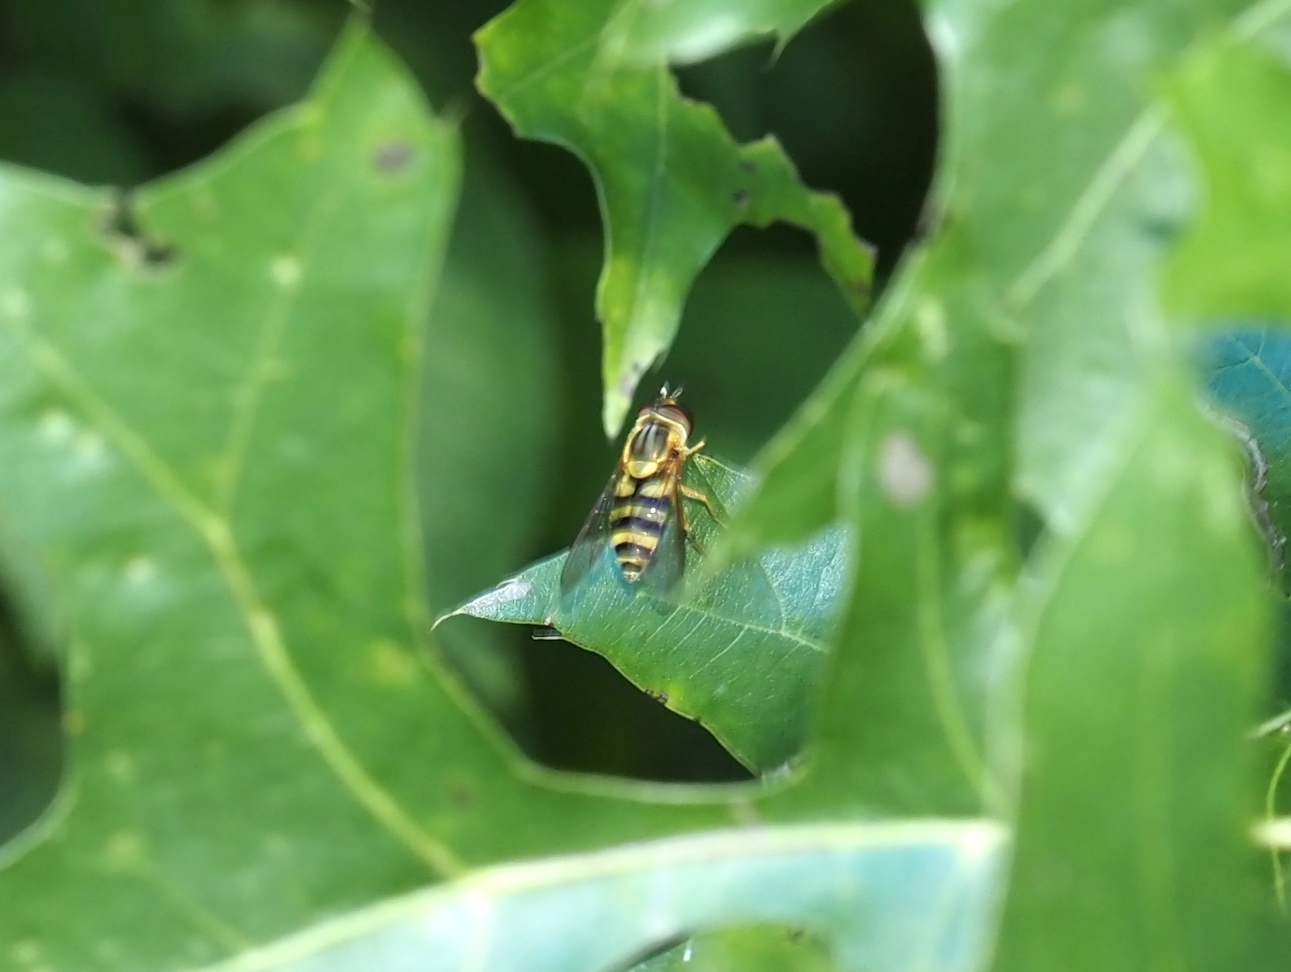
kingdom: Animalia
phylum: Arthropoda
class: Insecta
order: Diptera
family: Syrphidae
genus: Syrphus
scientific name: Syrphus knabi
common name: Eastern flower fly
